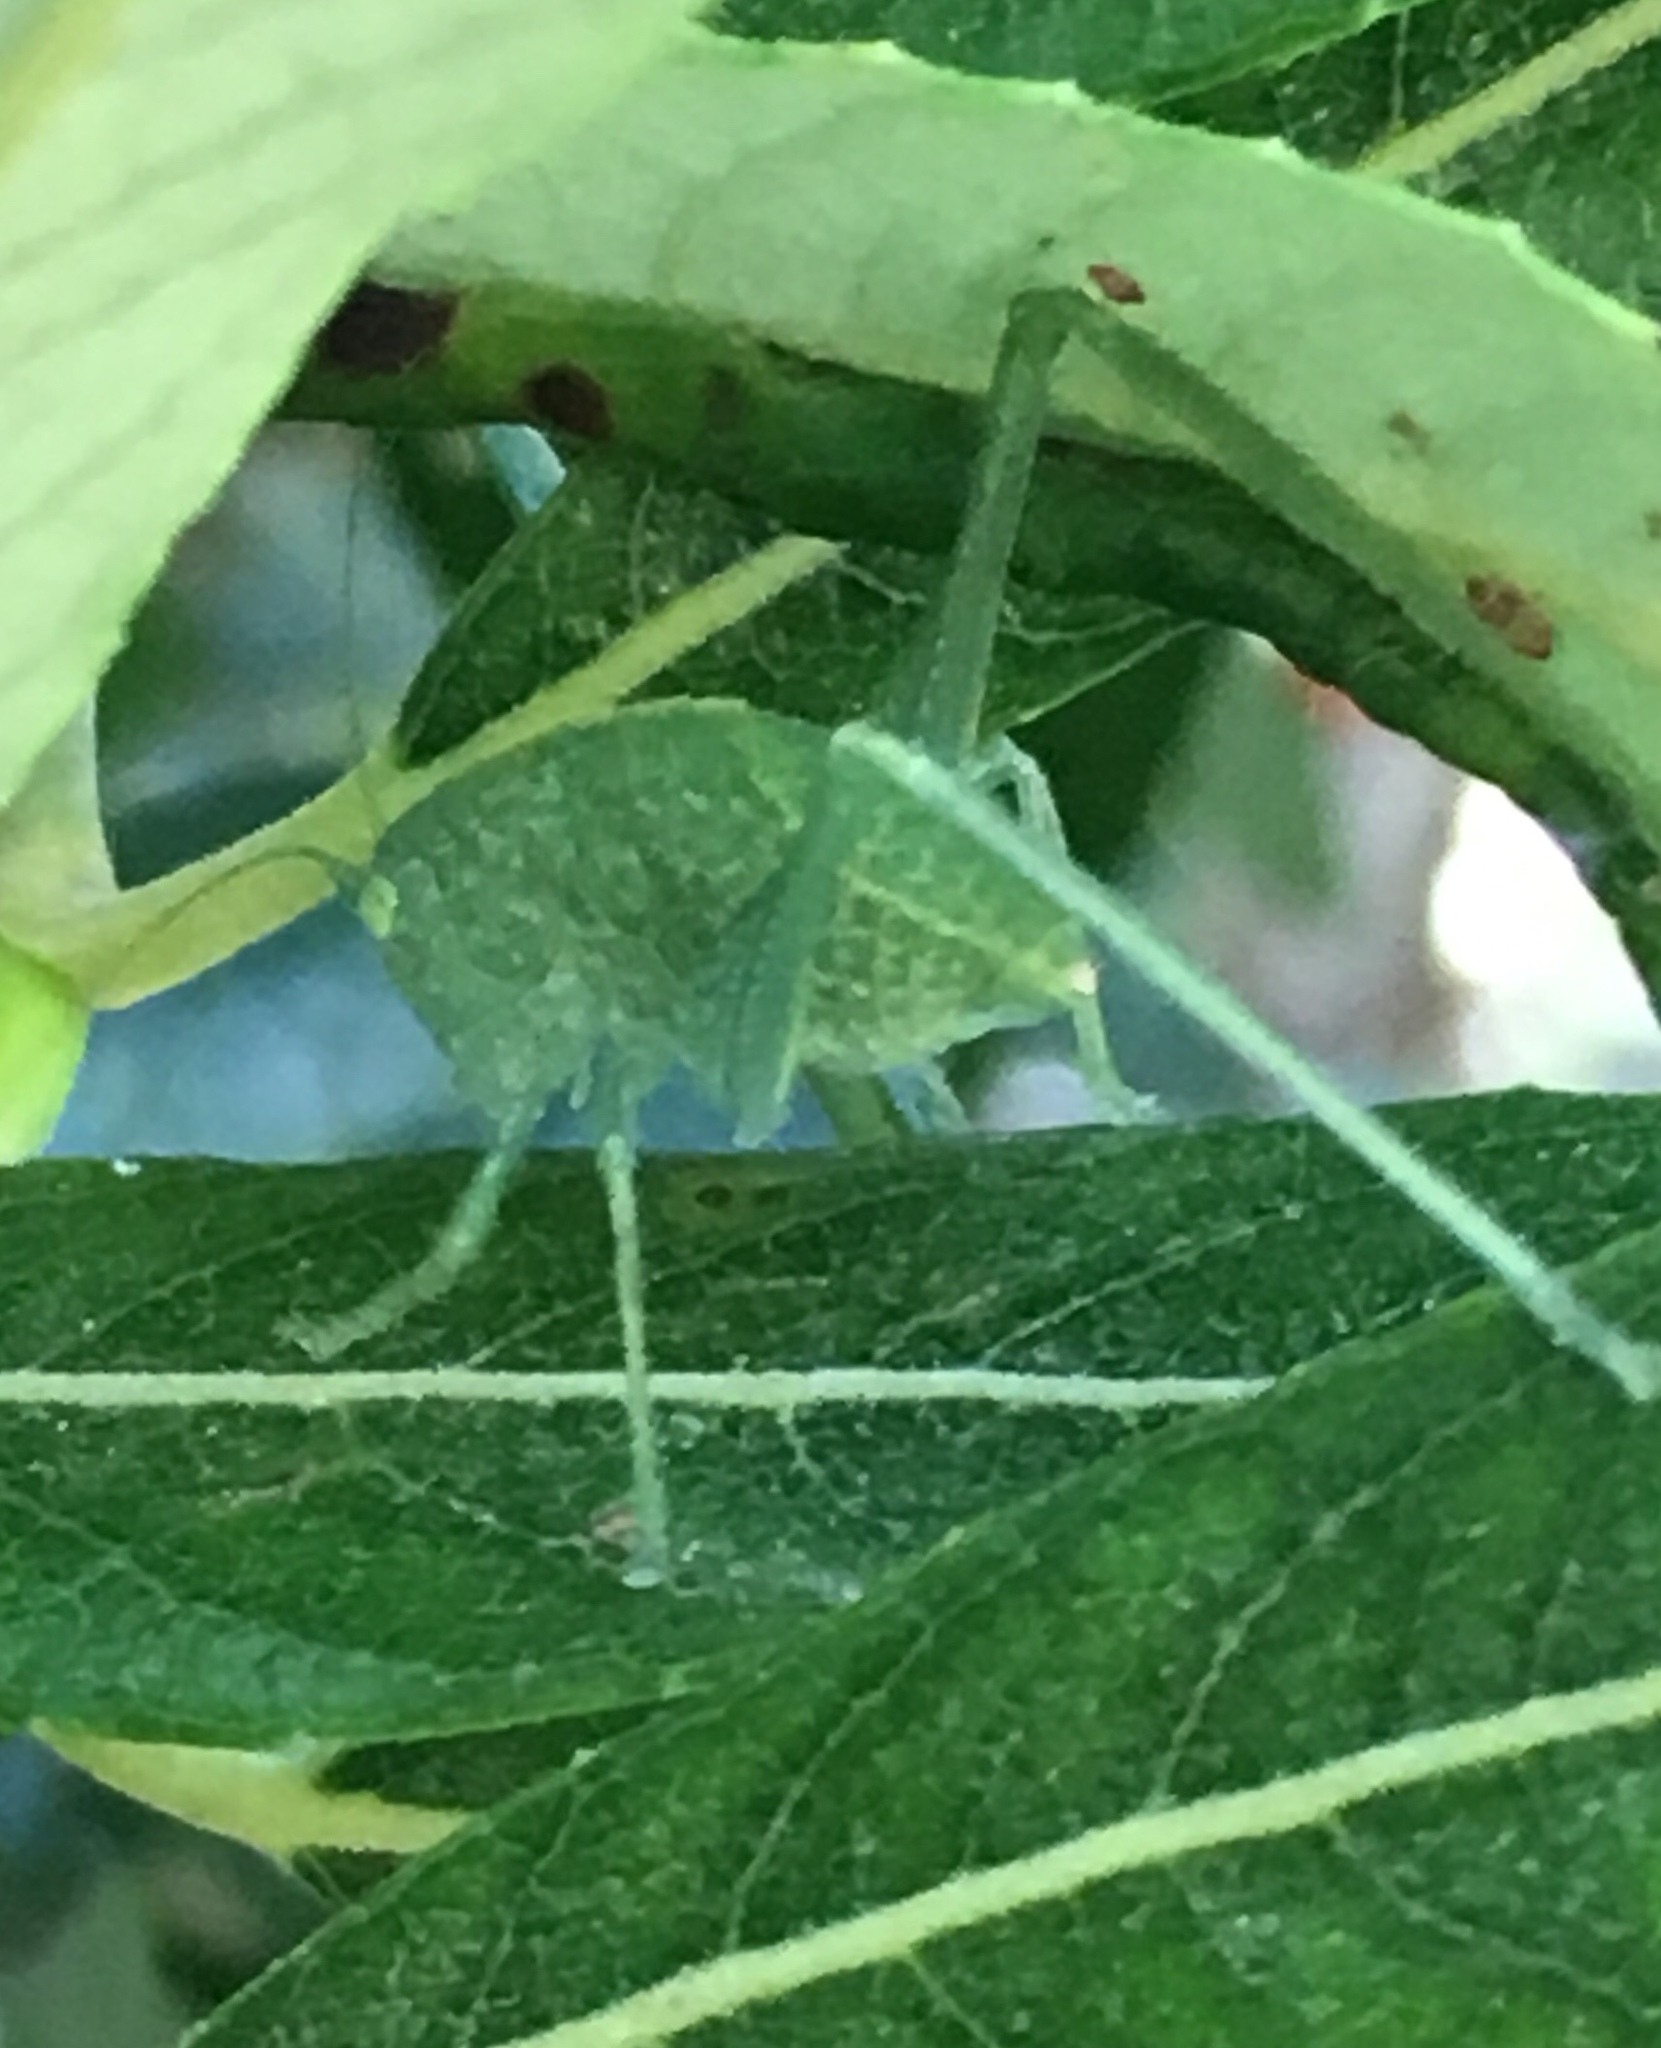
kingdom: Animalia
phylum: Arthropoda
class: Insecta
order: Orthoptera
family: Tettigoniidae
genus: Microcentrum
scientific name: Microcentrum
